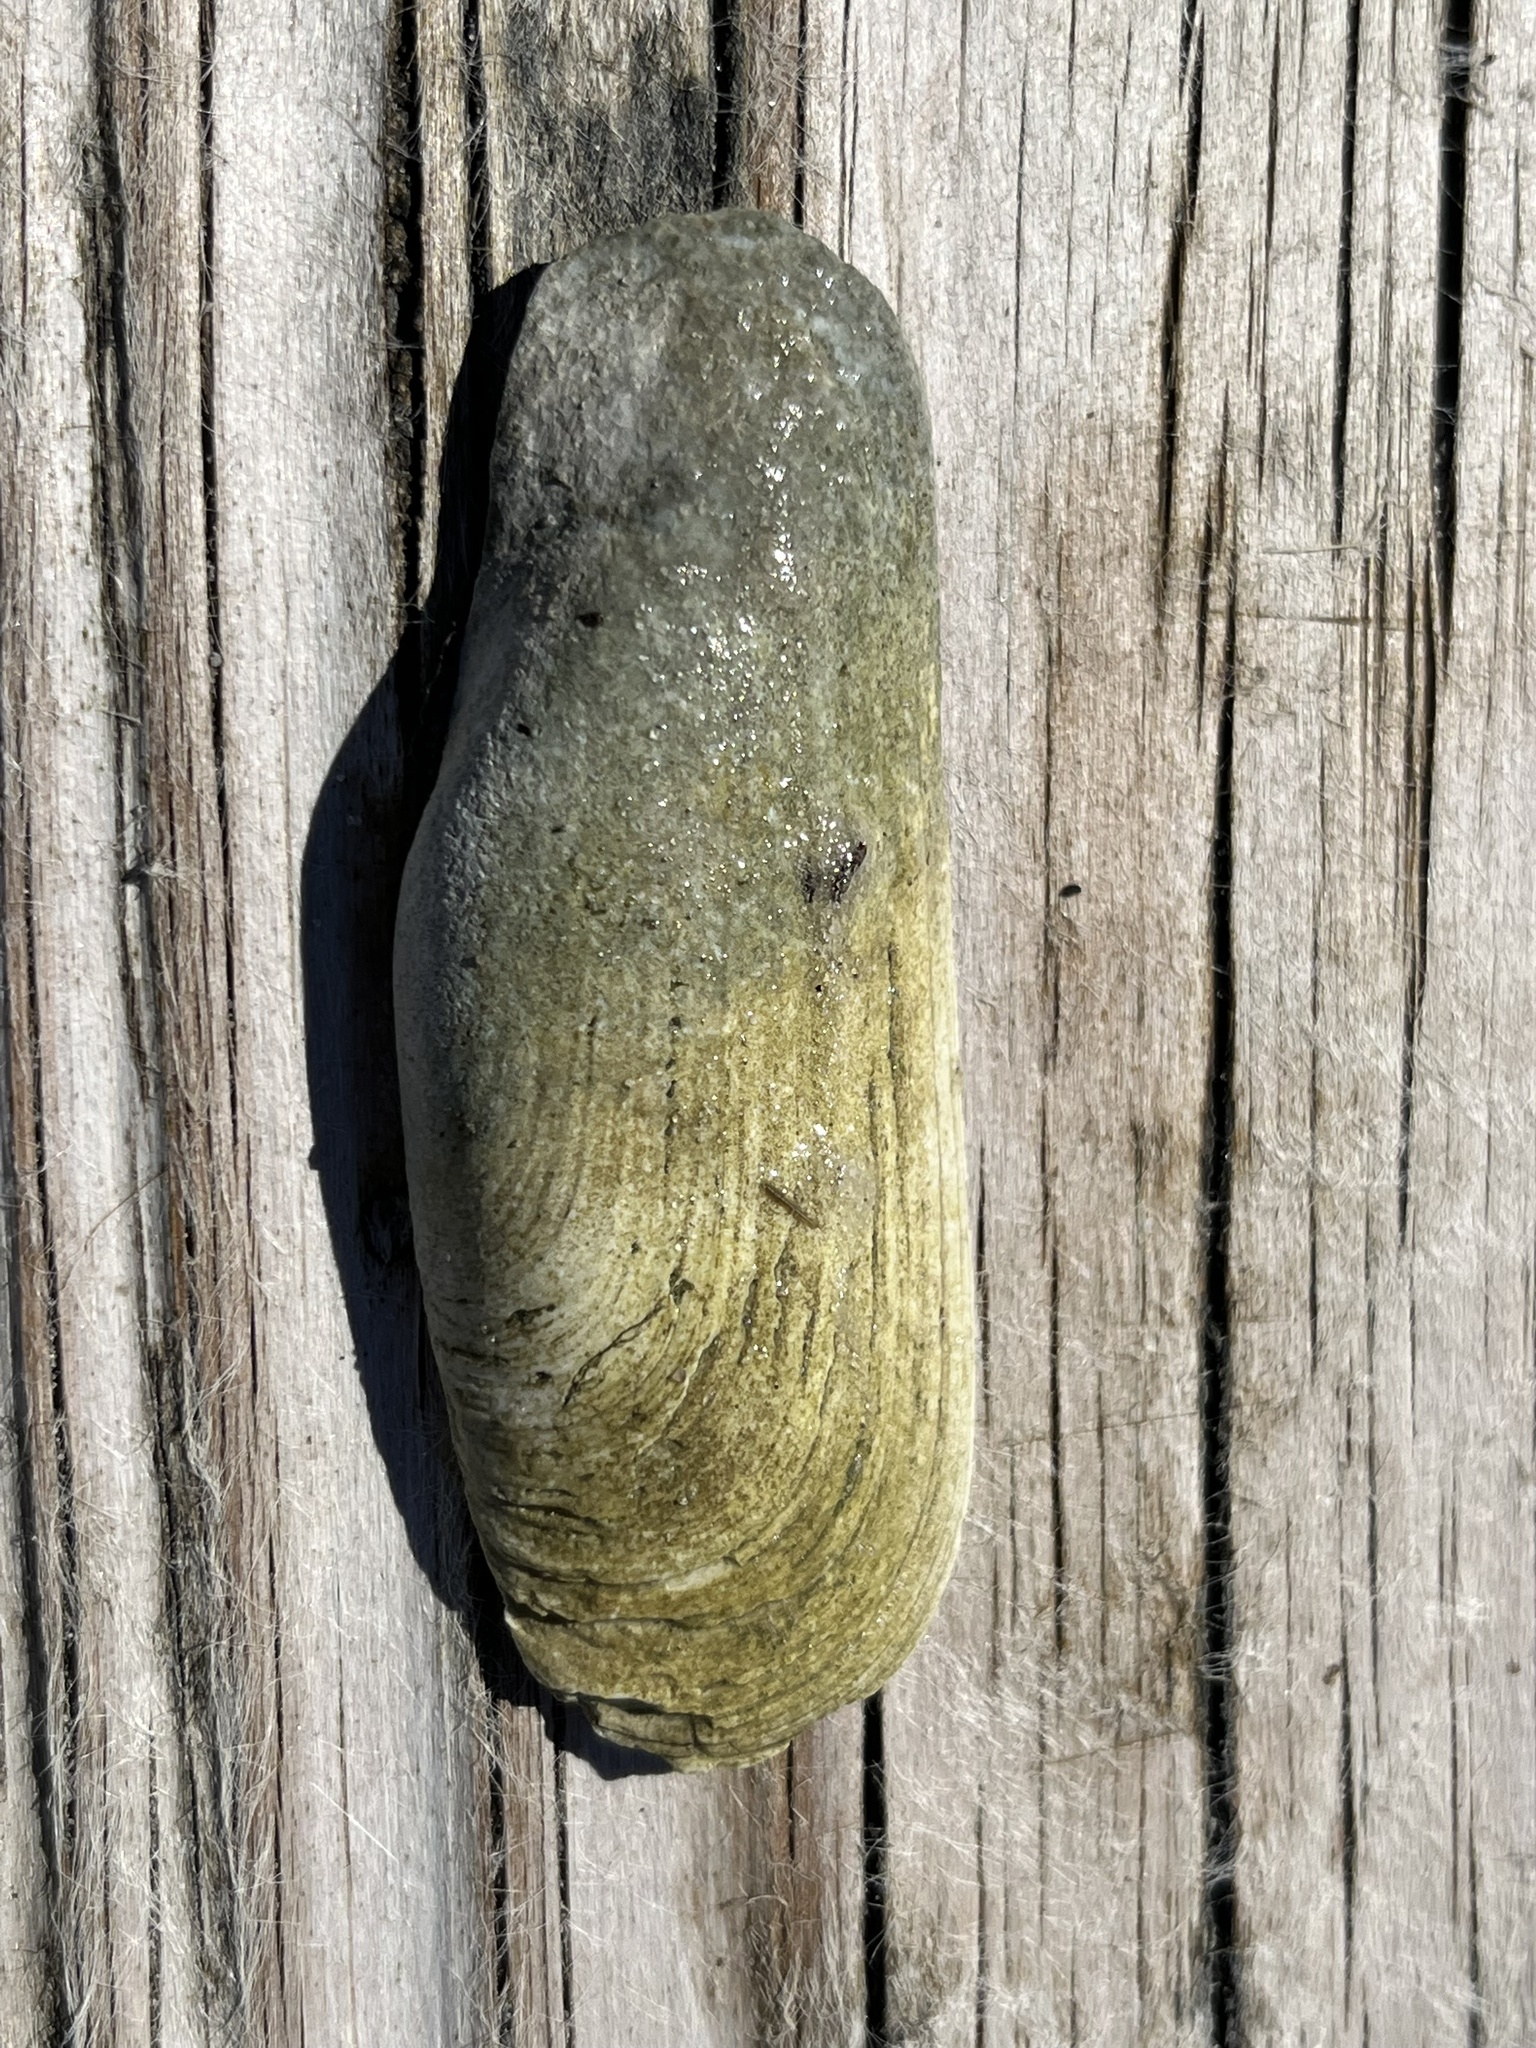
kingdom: Animalia
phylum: Mollusca
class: Bivalvia
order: Cardiida
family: Solecurtidae
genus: Tagelus
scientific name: Tagelus plebeius
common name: Stout tagelus
